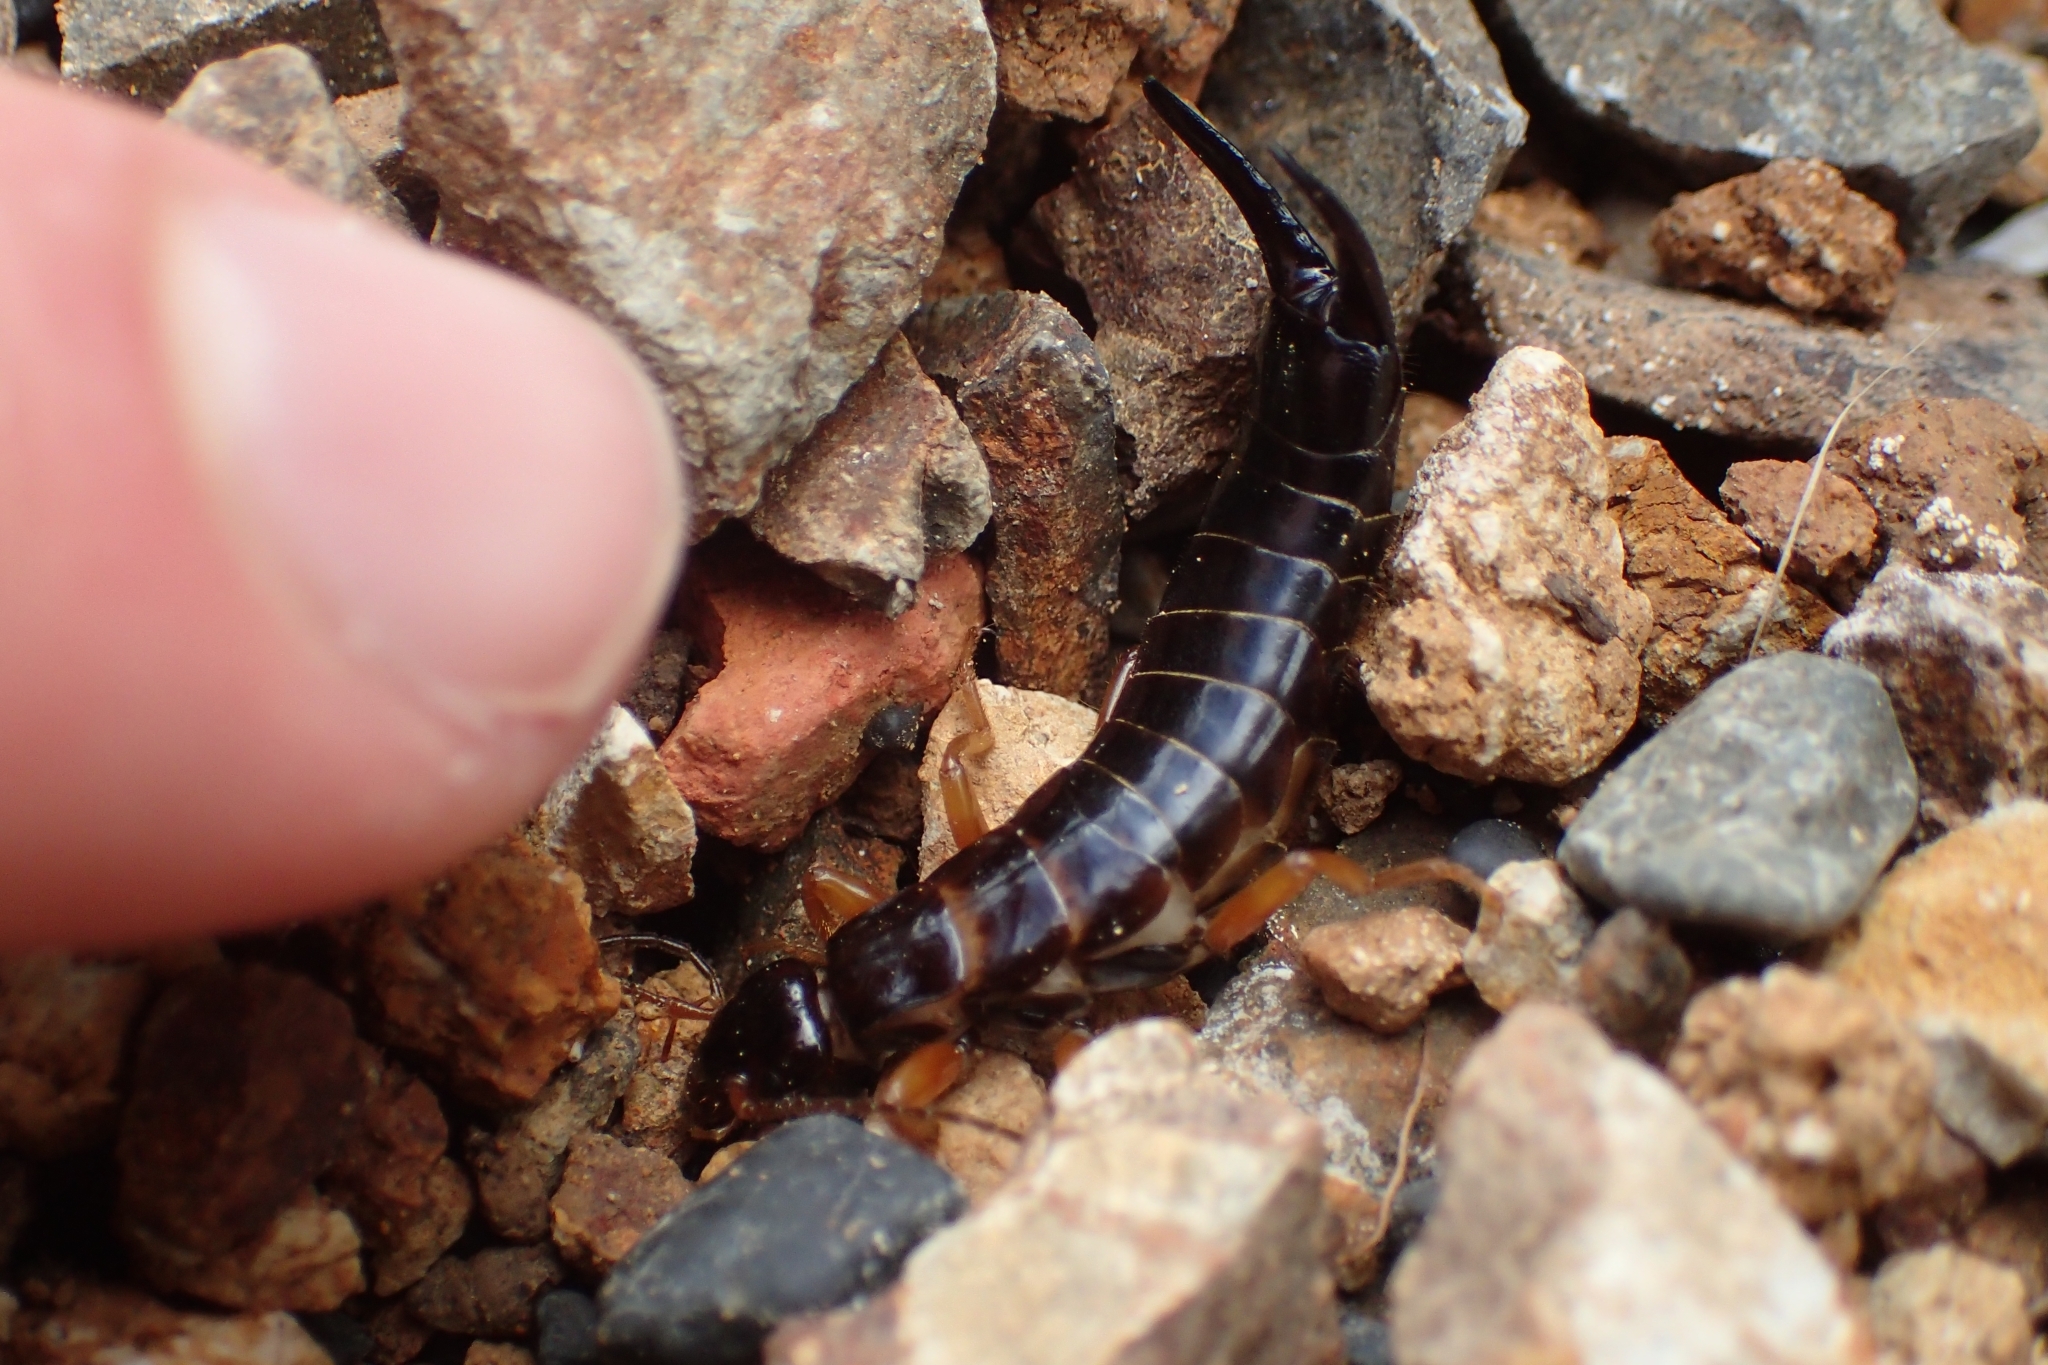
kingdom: Animalia
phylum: Arthropoda
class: Insecta
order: Dermaptera
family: Anisolabididae
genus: Anisolabis
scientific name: Anisolabis littorea
